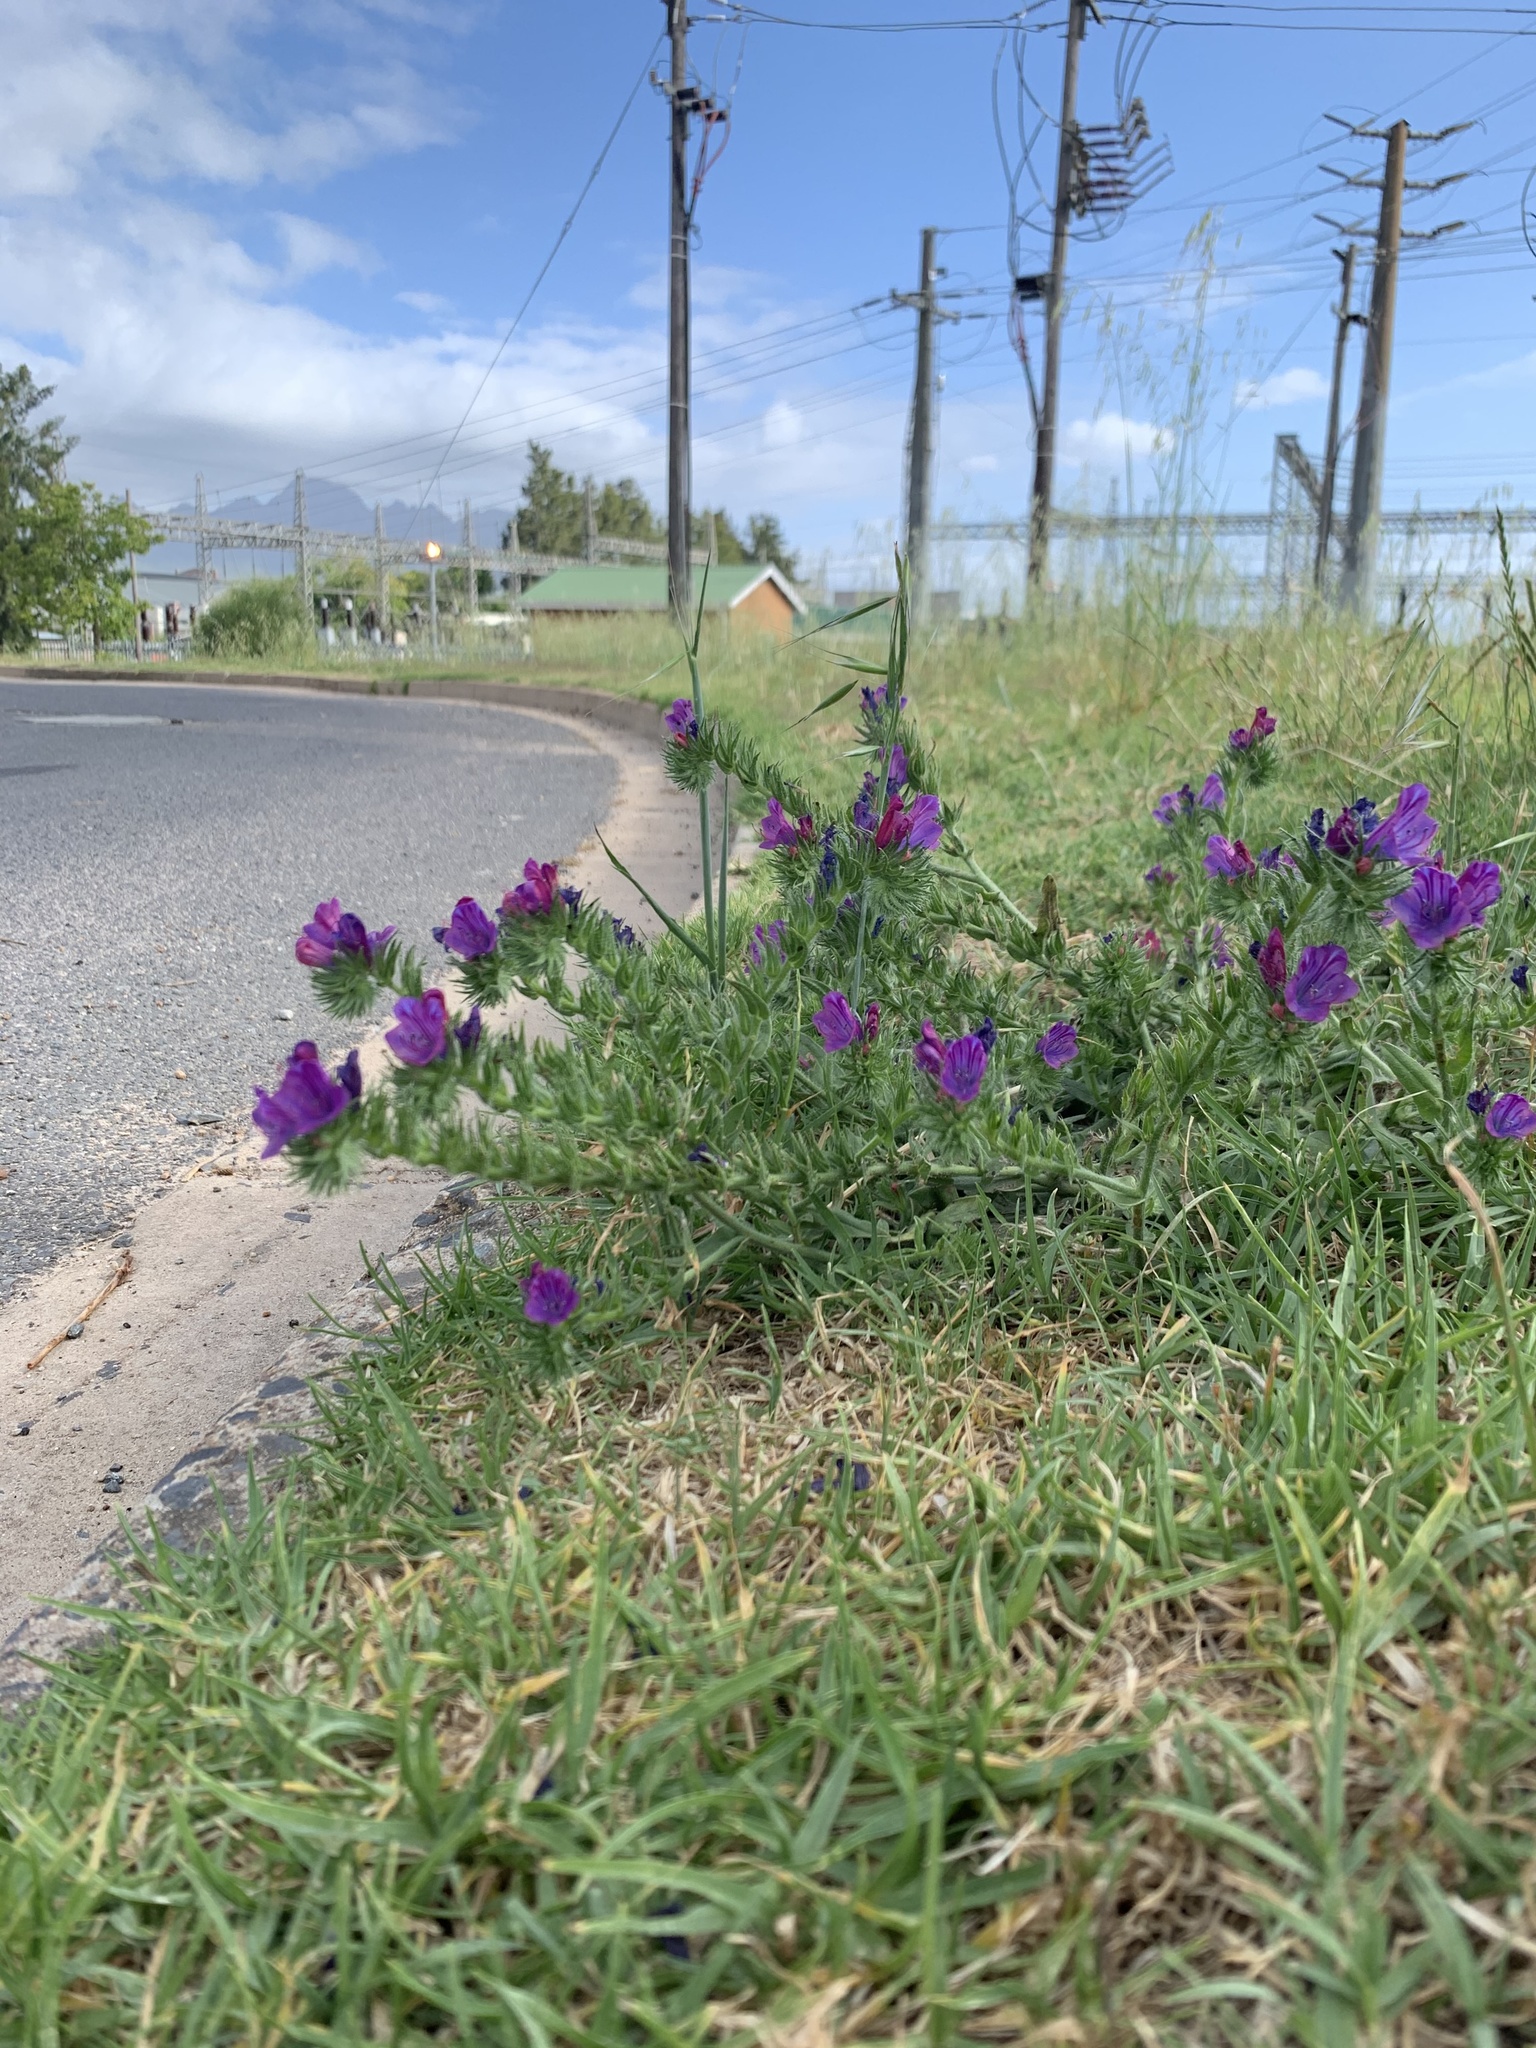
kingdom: Plantae
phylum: Tracheophyta
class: Magnoliopsida
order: Boraginales
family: Boraginaceae
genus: Echium
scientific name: Echium plantagineum
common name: Purple viper's-bugloss
